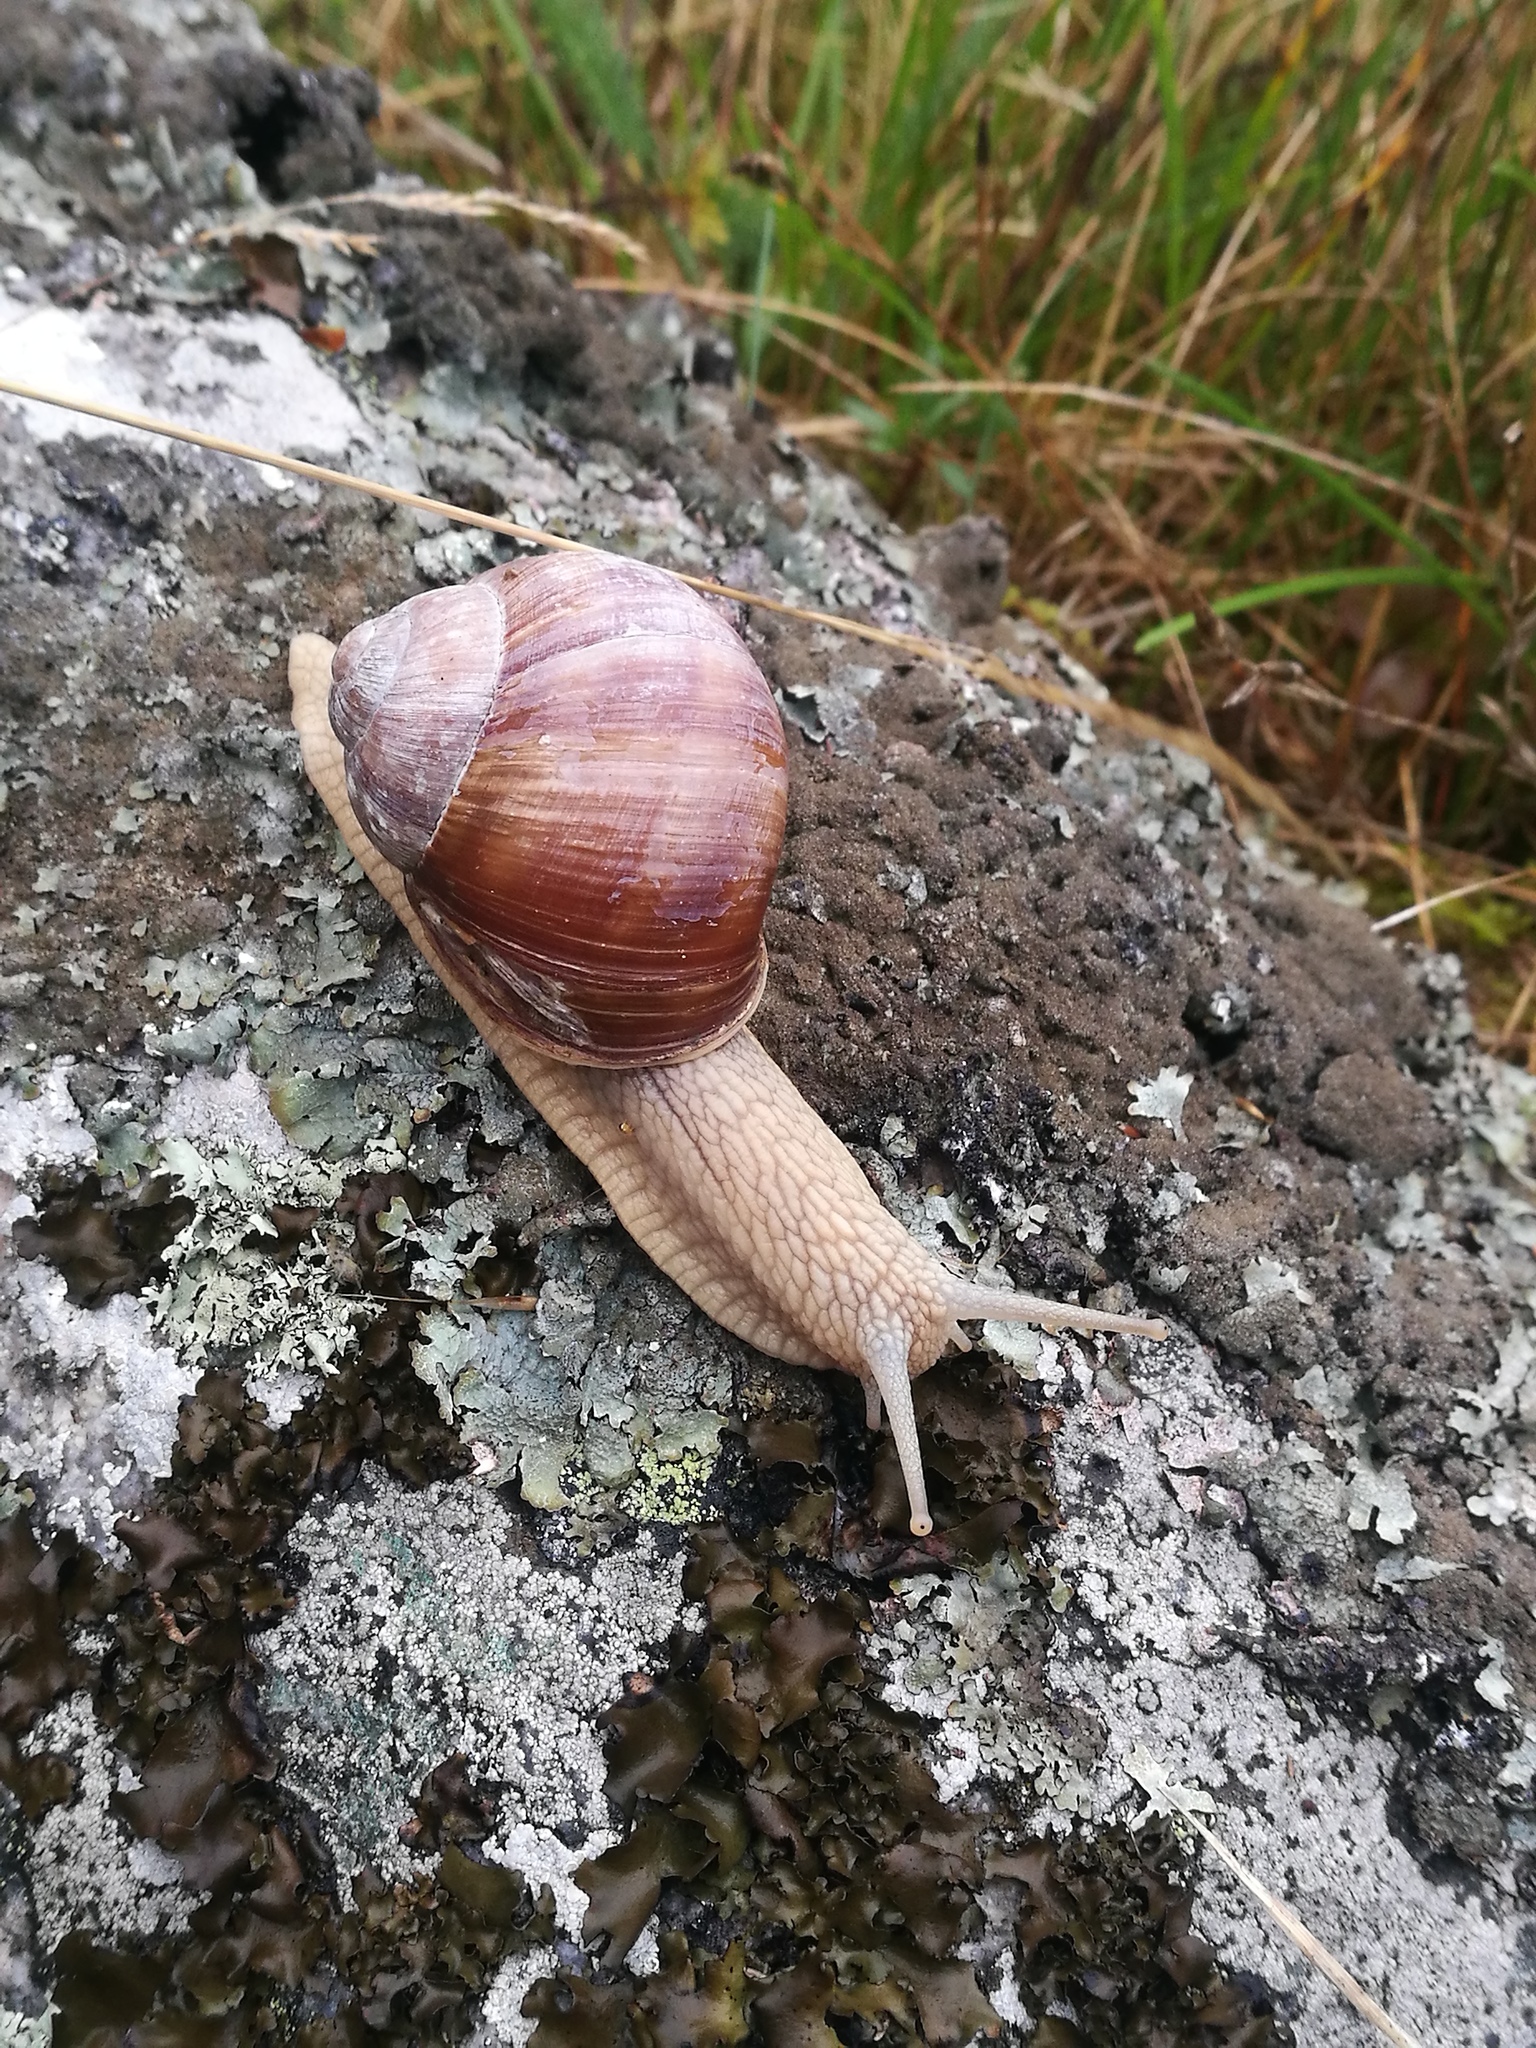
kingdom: Animalia
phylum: Mollusca
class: Gastropoda
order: Stylommatophora
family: Helicidae
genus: Helix
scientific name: Helix pomatia
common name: Roman snail
